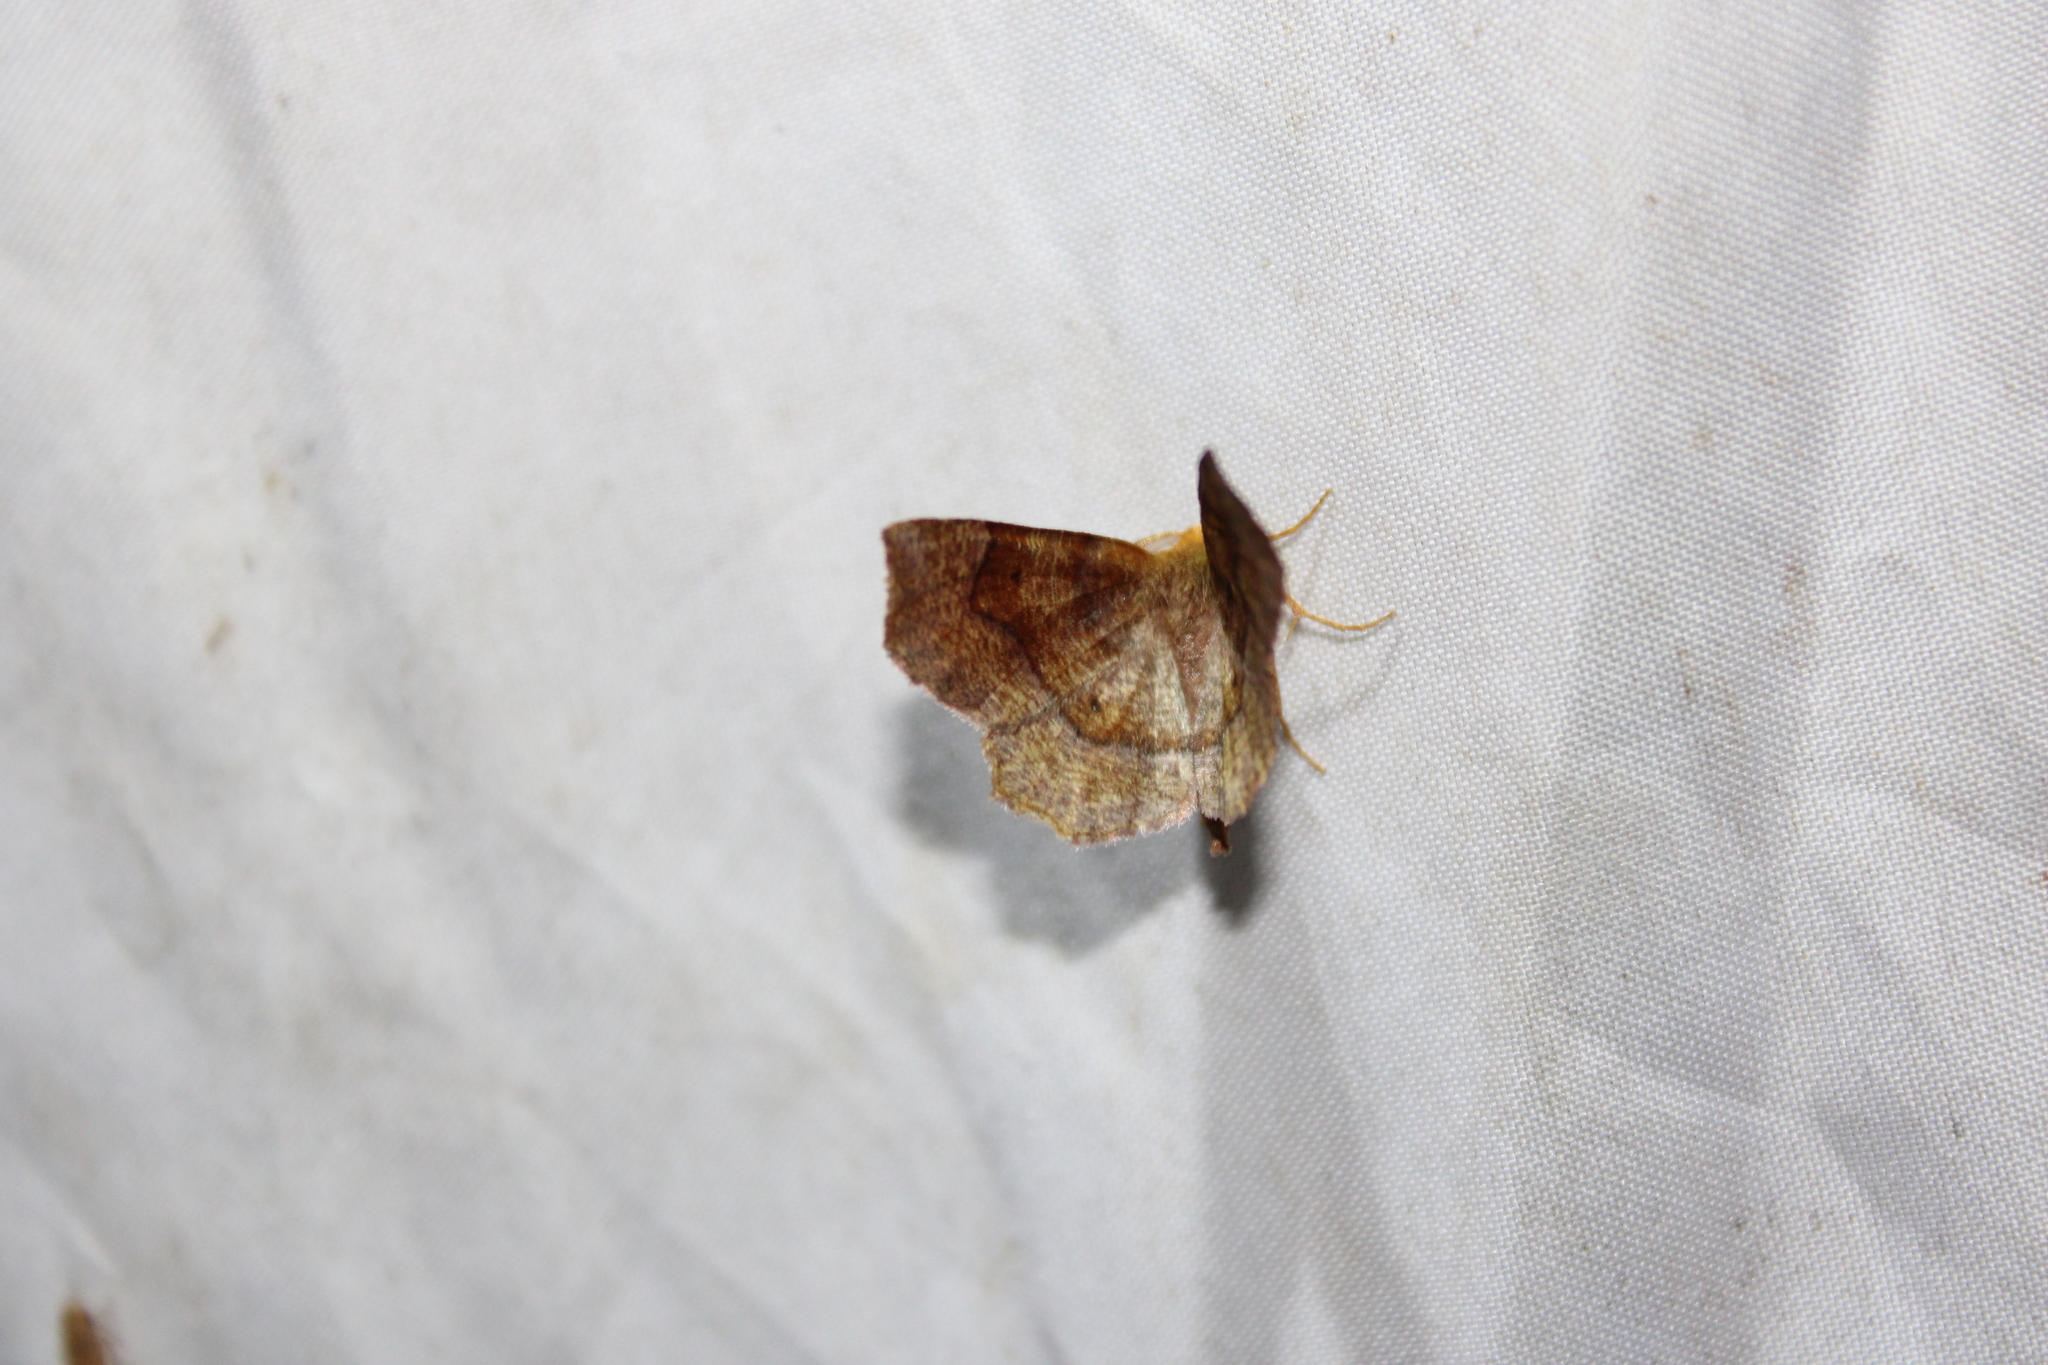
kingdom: Animalia
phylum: Arthropoda
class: Insecta
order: Lepidoptera
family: Geometridae
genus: Metarranthis
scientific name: Metarranthis hypochraria
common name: Common metarranthis
